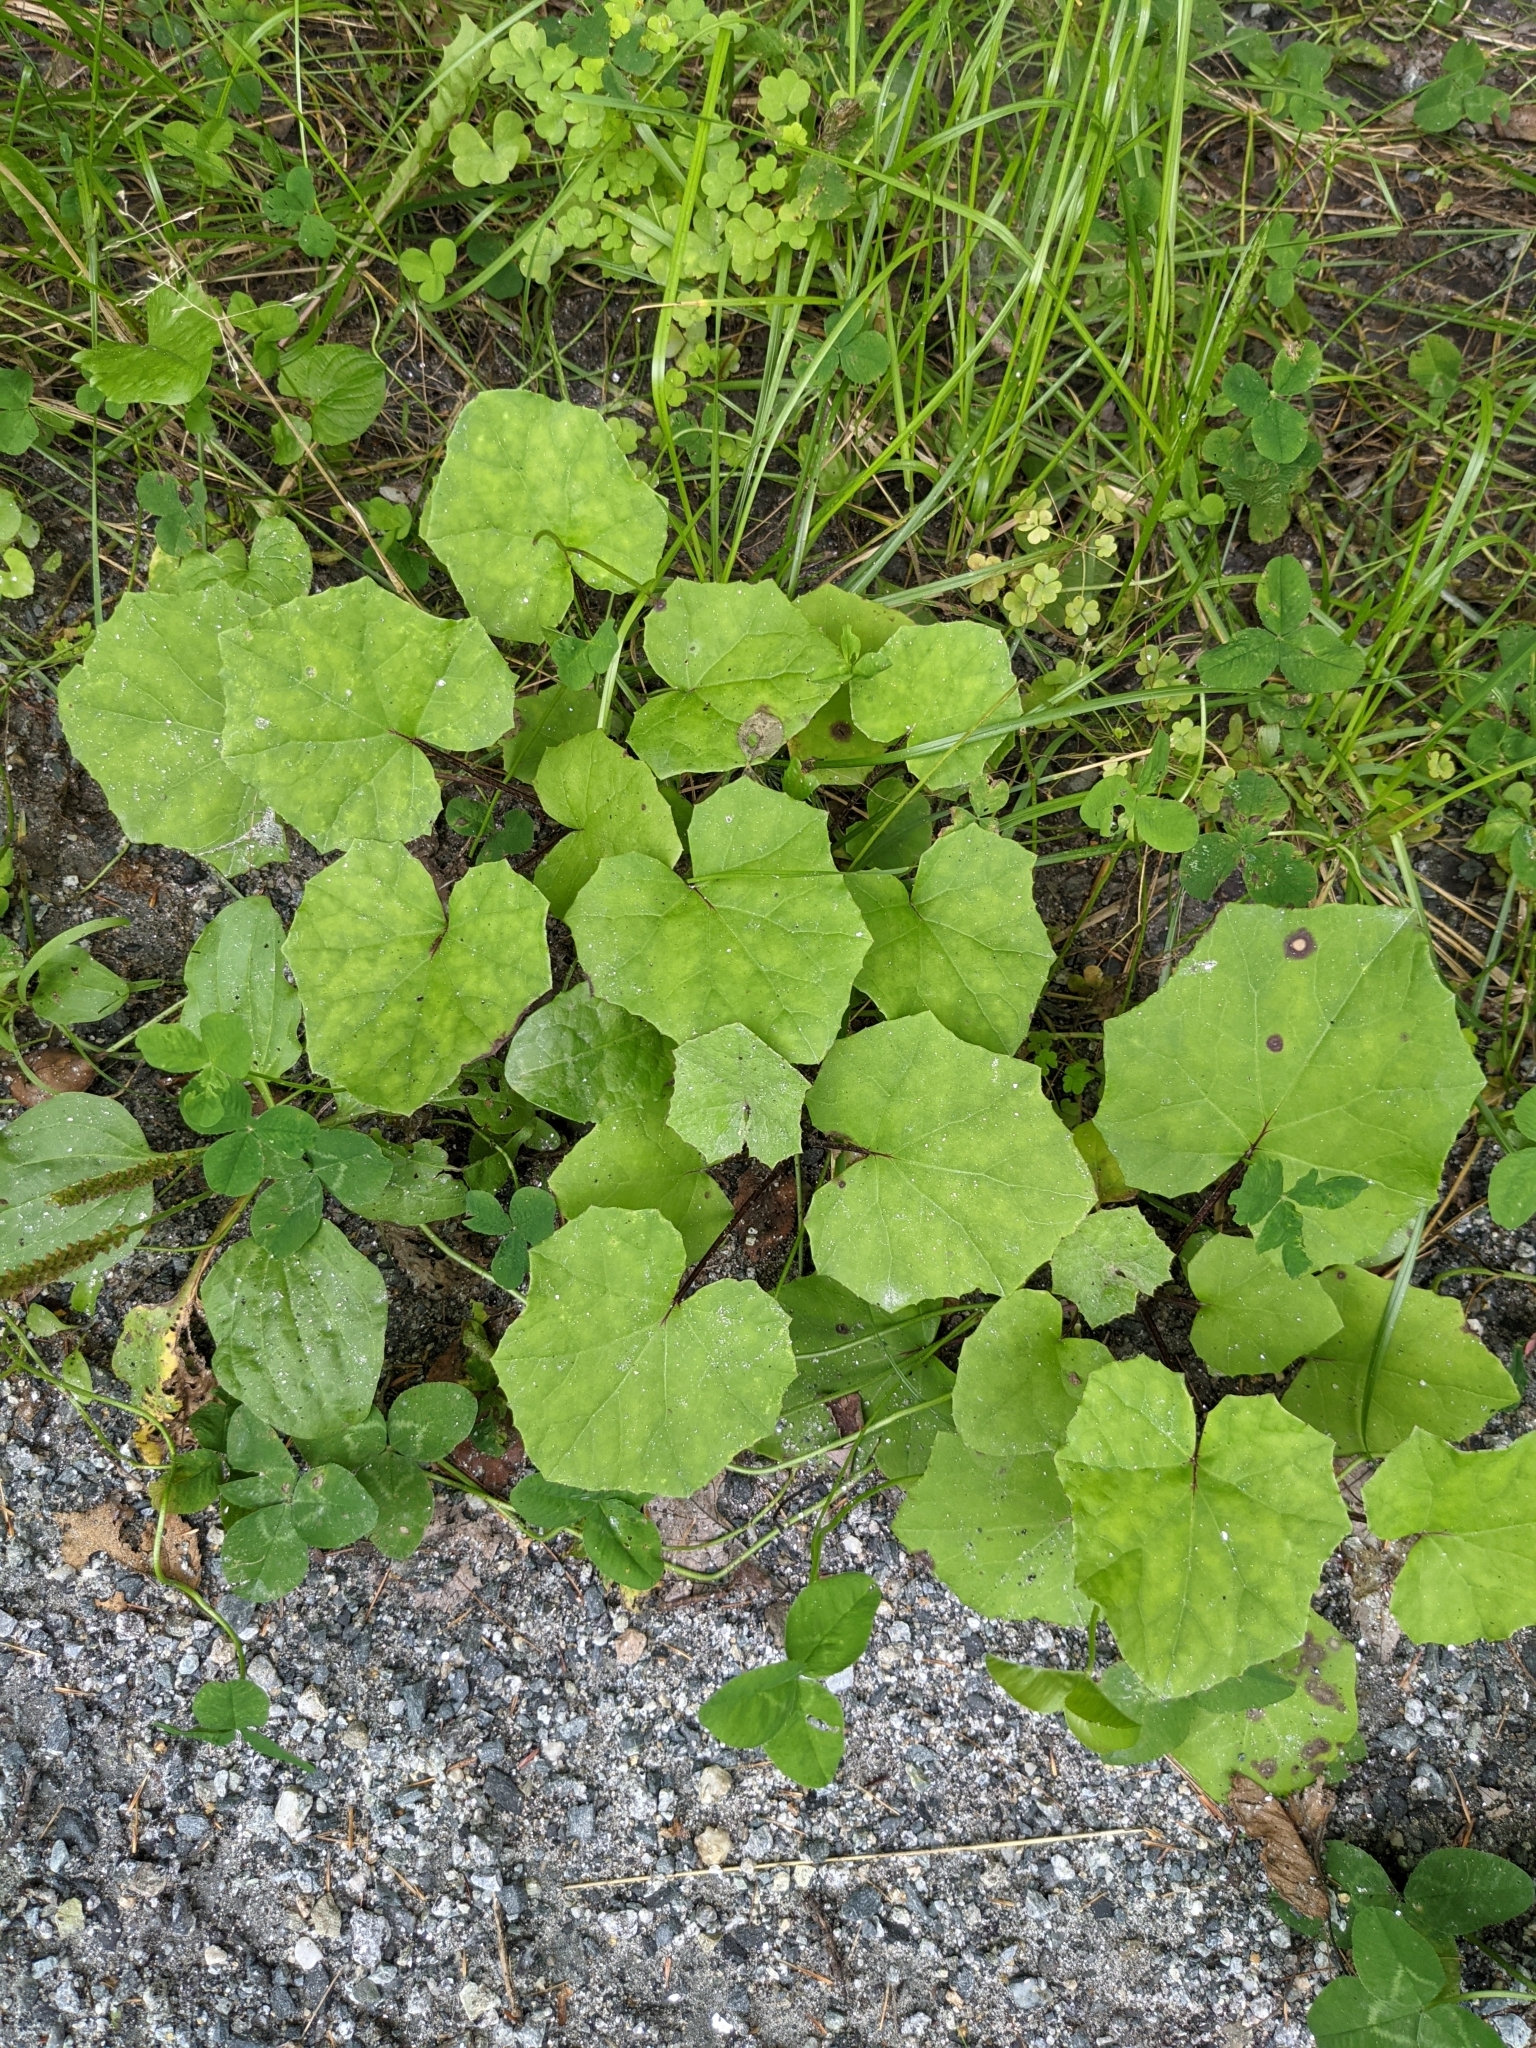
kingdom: Plantae
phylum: Tracheophyta
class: Magnoliopsida
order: Asterales
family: Asteraceae
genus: Tussilago
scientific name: Tussilago farfara
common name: Coltsfoot
